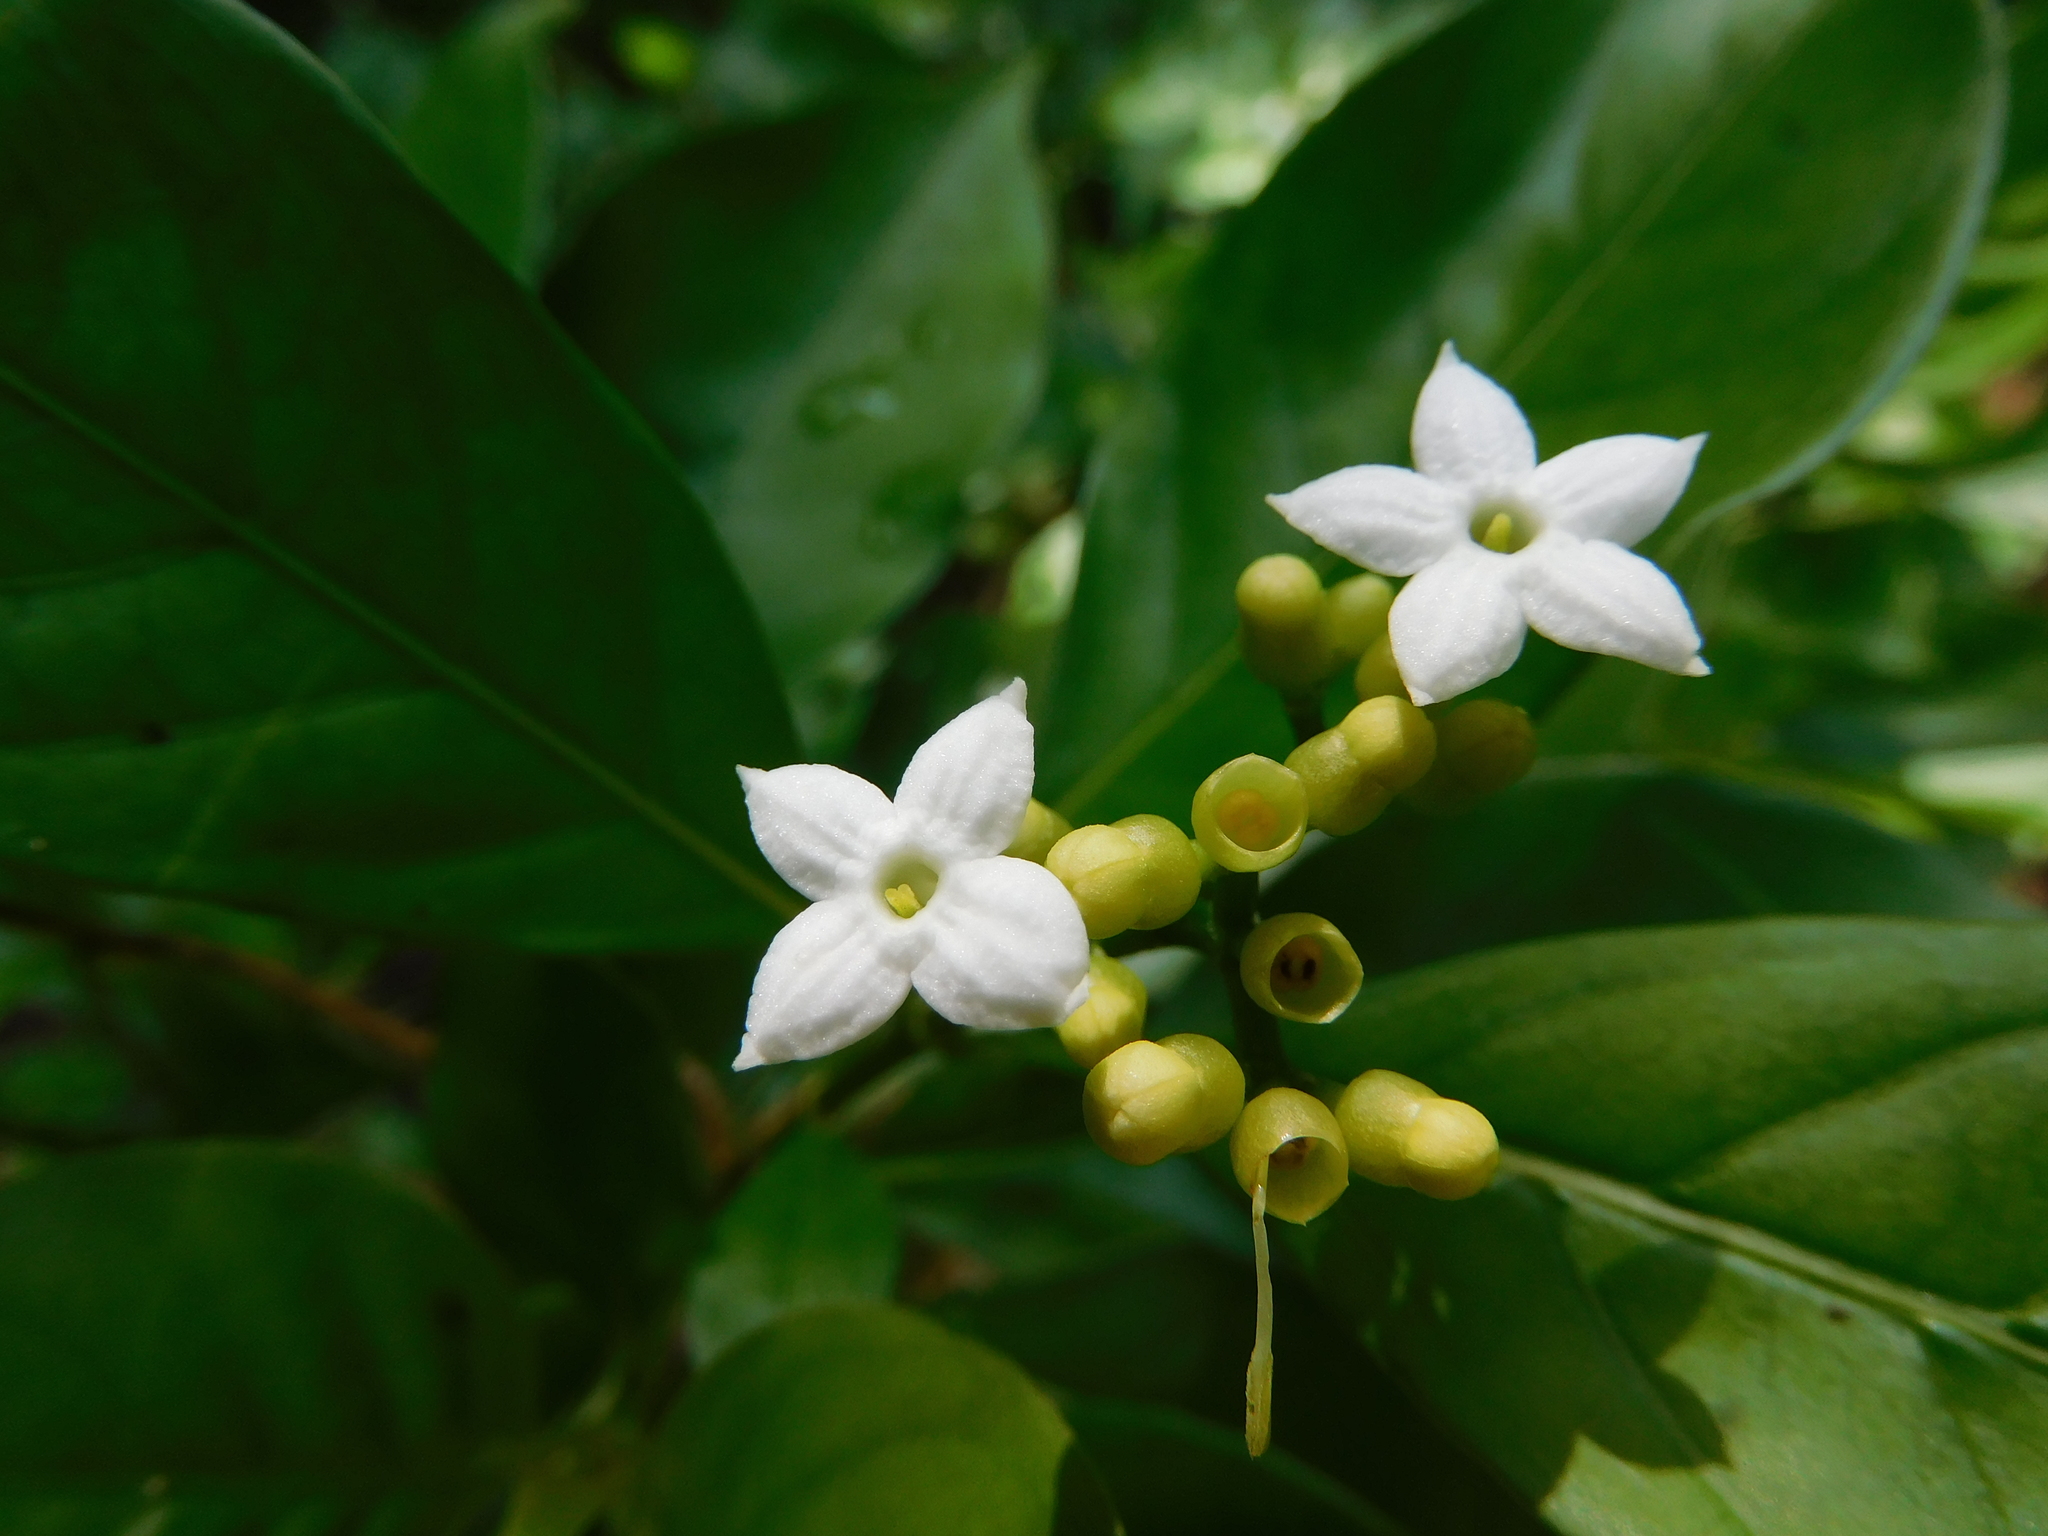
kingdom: Plantae
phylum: Tracheophyta
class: Magnoliopsida
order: Gentianales
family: Rubiaceae
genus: Eumachia
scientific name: Eumachia microdon
